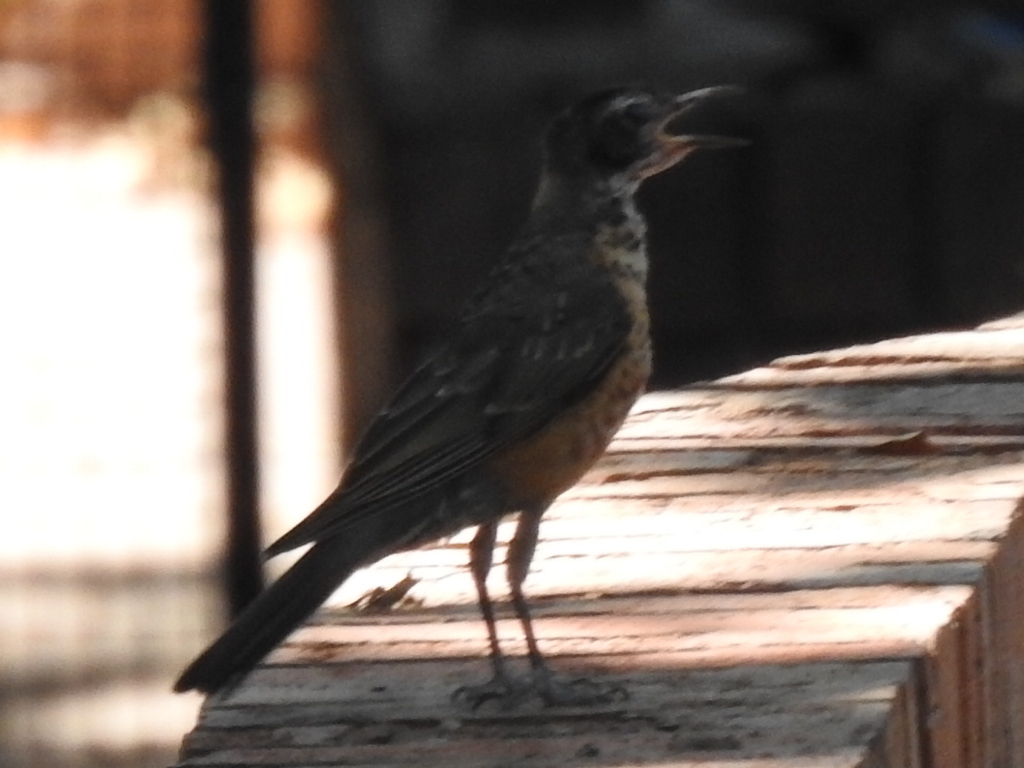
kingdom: Animalia
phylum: Chordata
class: Aves
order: Passeriformes
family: Turdidae
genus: Turdus
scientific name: Turdus migratorius
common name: American robin
